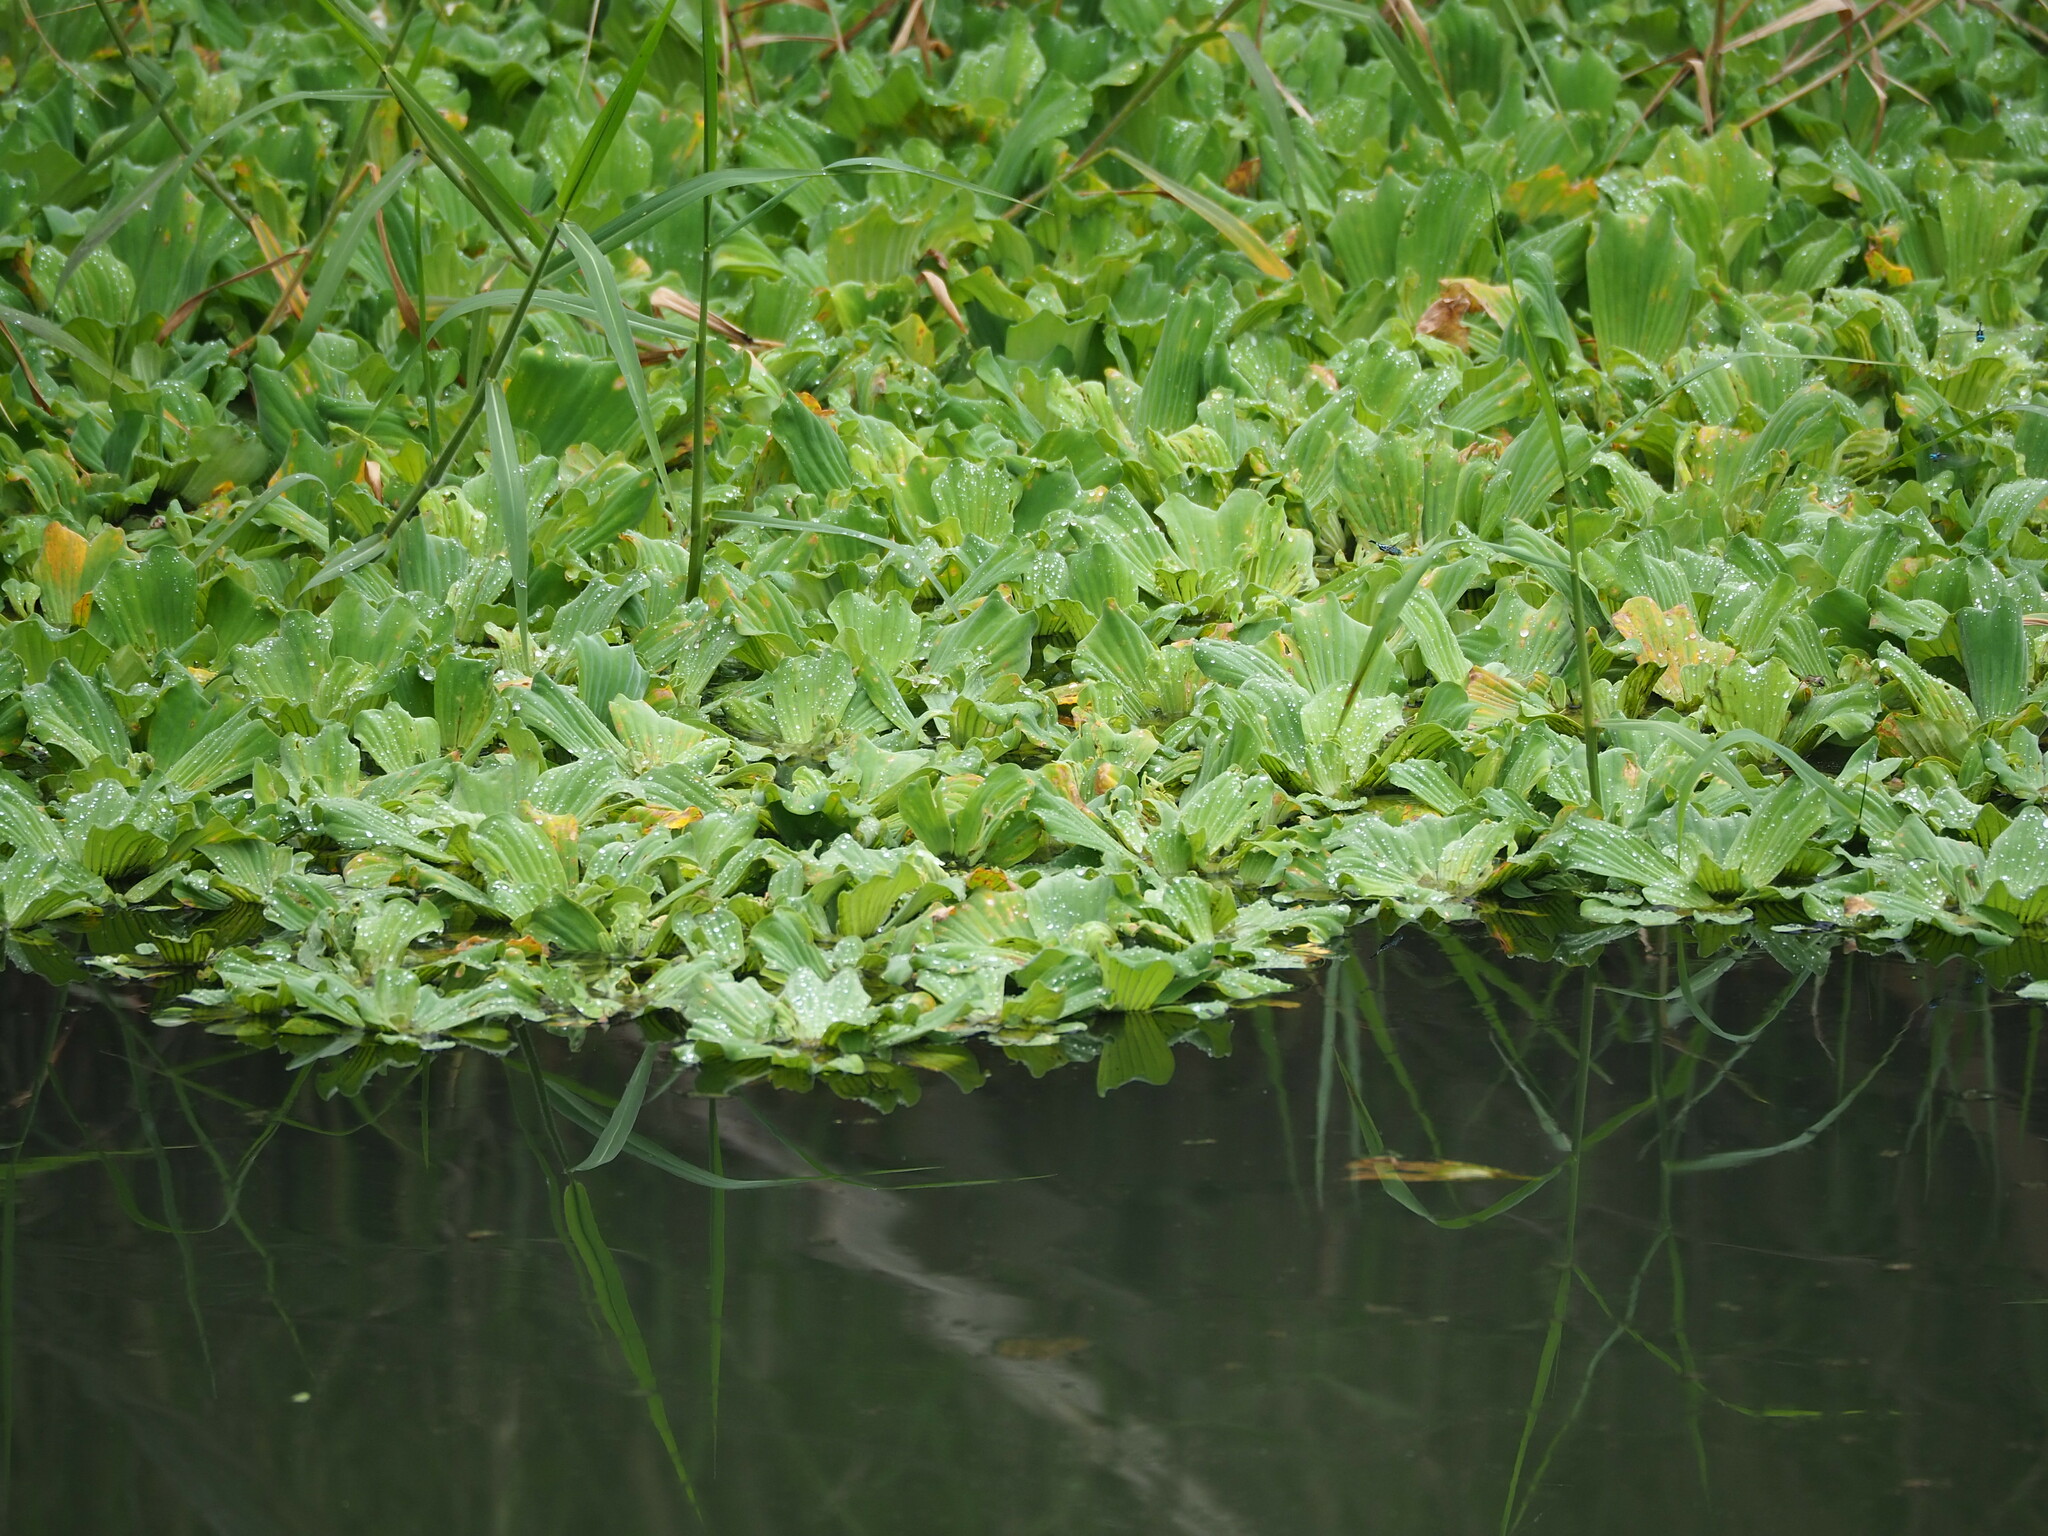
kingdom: Plantae
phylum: Tracheophyta
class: Liliopsida
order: Alismatales
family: Araceae
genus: Pistia
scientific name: Pistia stratiotes
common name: Water lettuce
